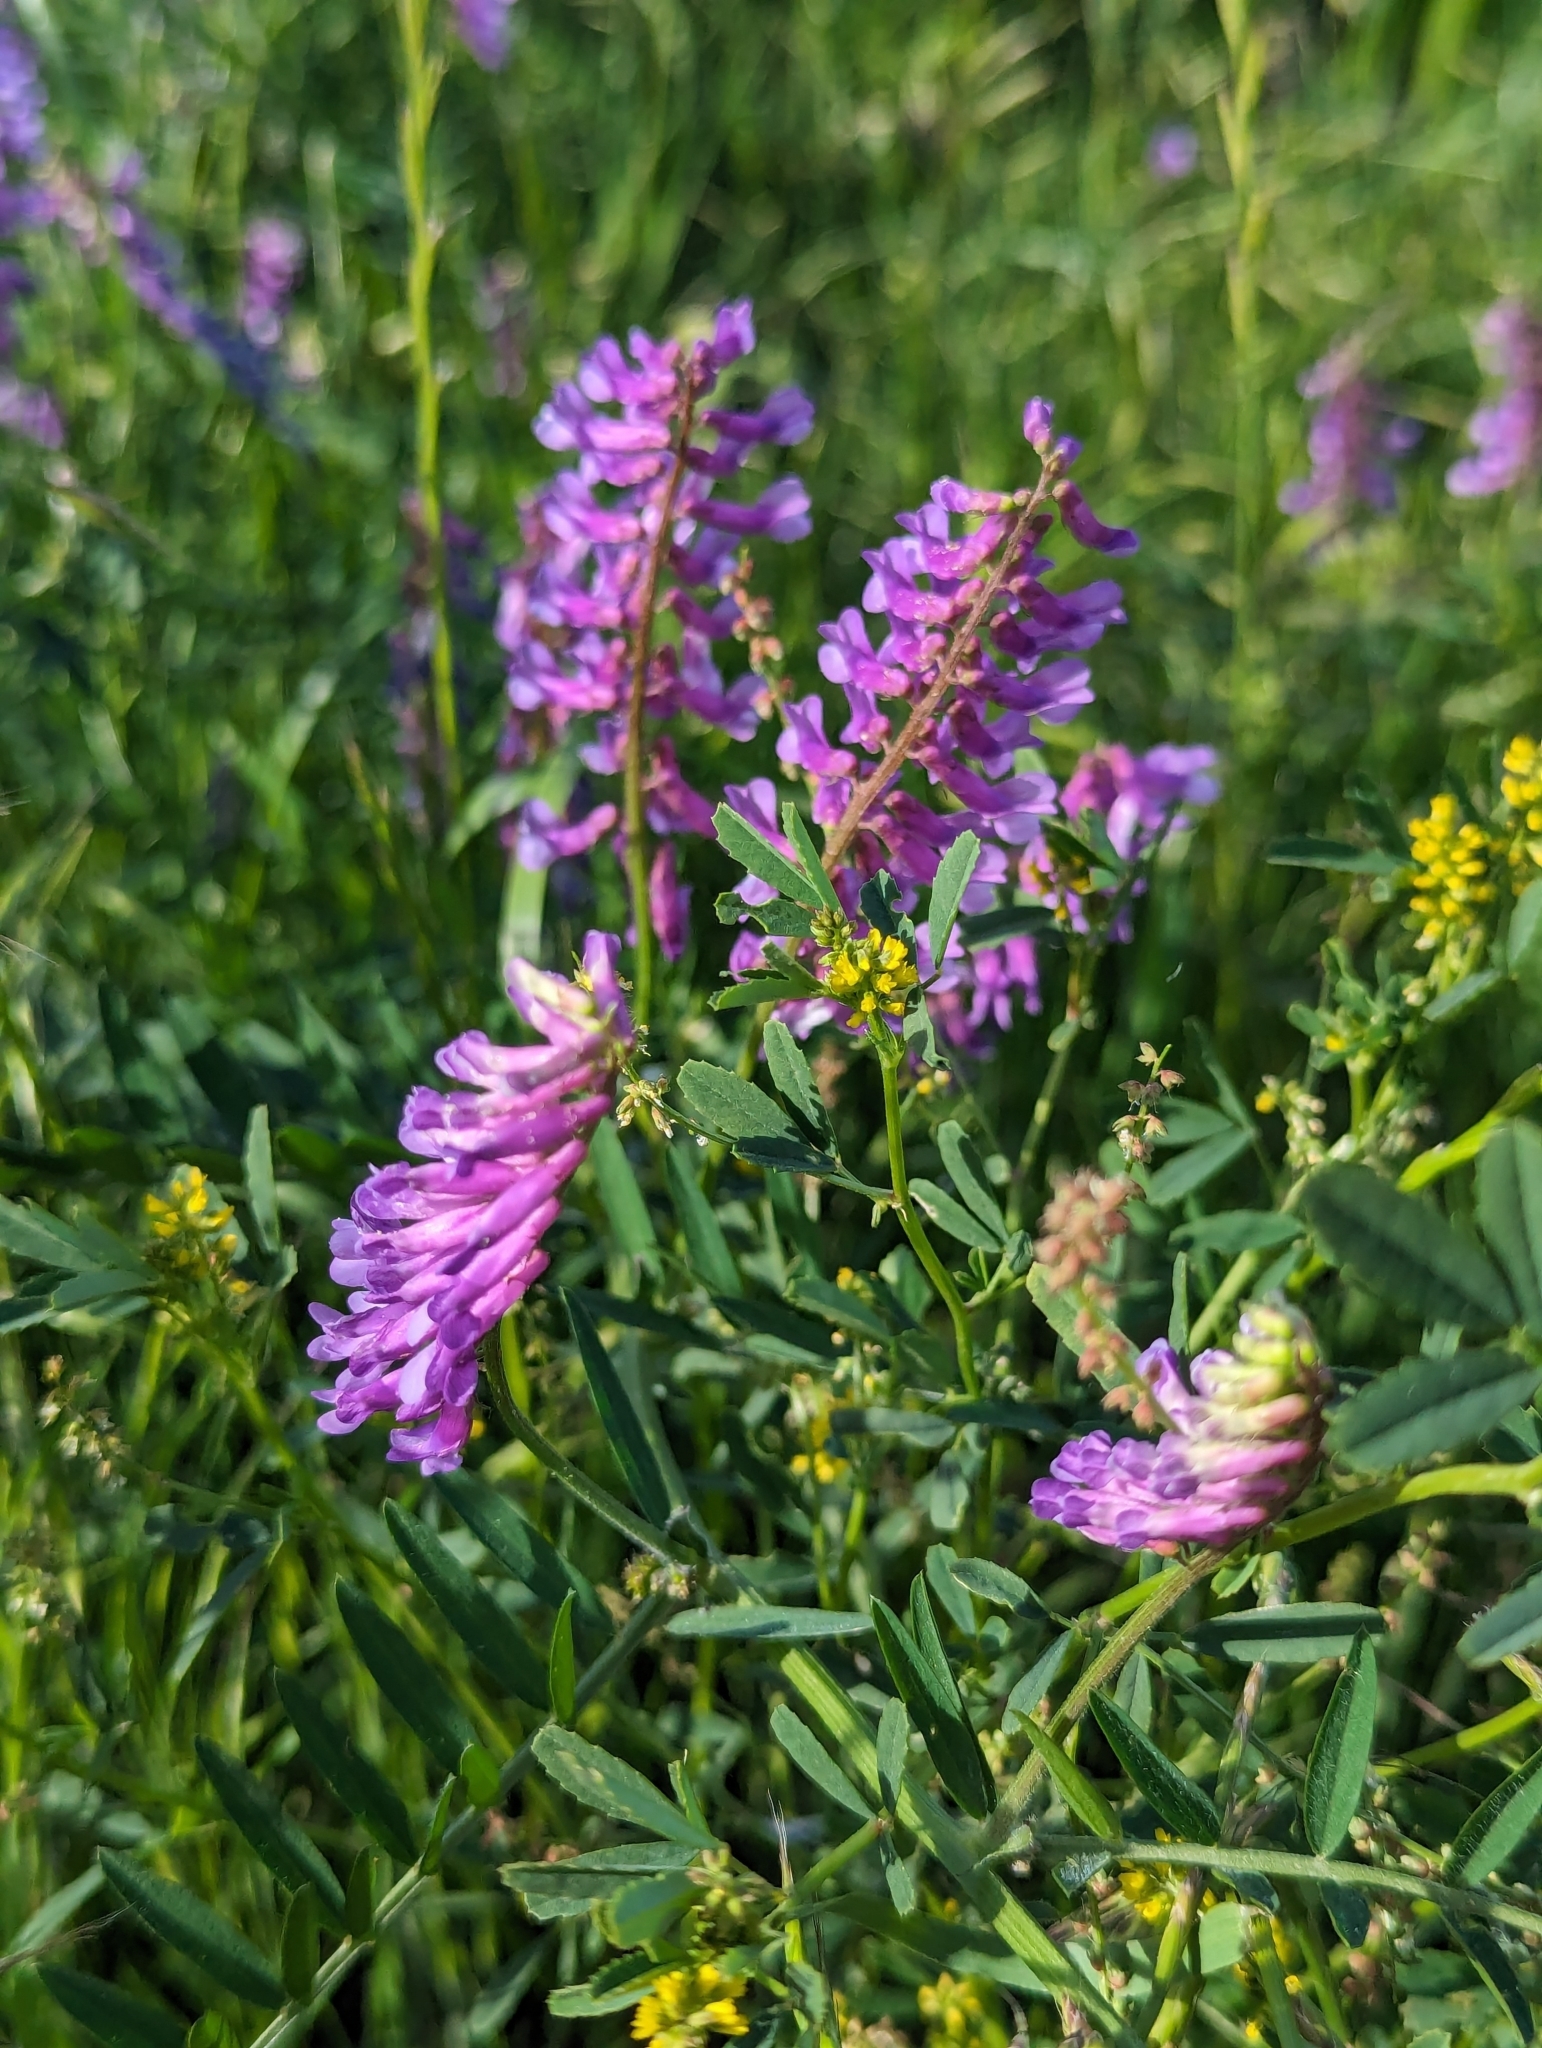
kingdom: Plantae
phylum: Tracheophyta
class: Magnoliopsida
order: Fabales
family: Fabaceae
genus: Vicia
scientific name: Vicia villosa
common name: Fodder vetch
